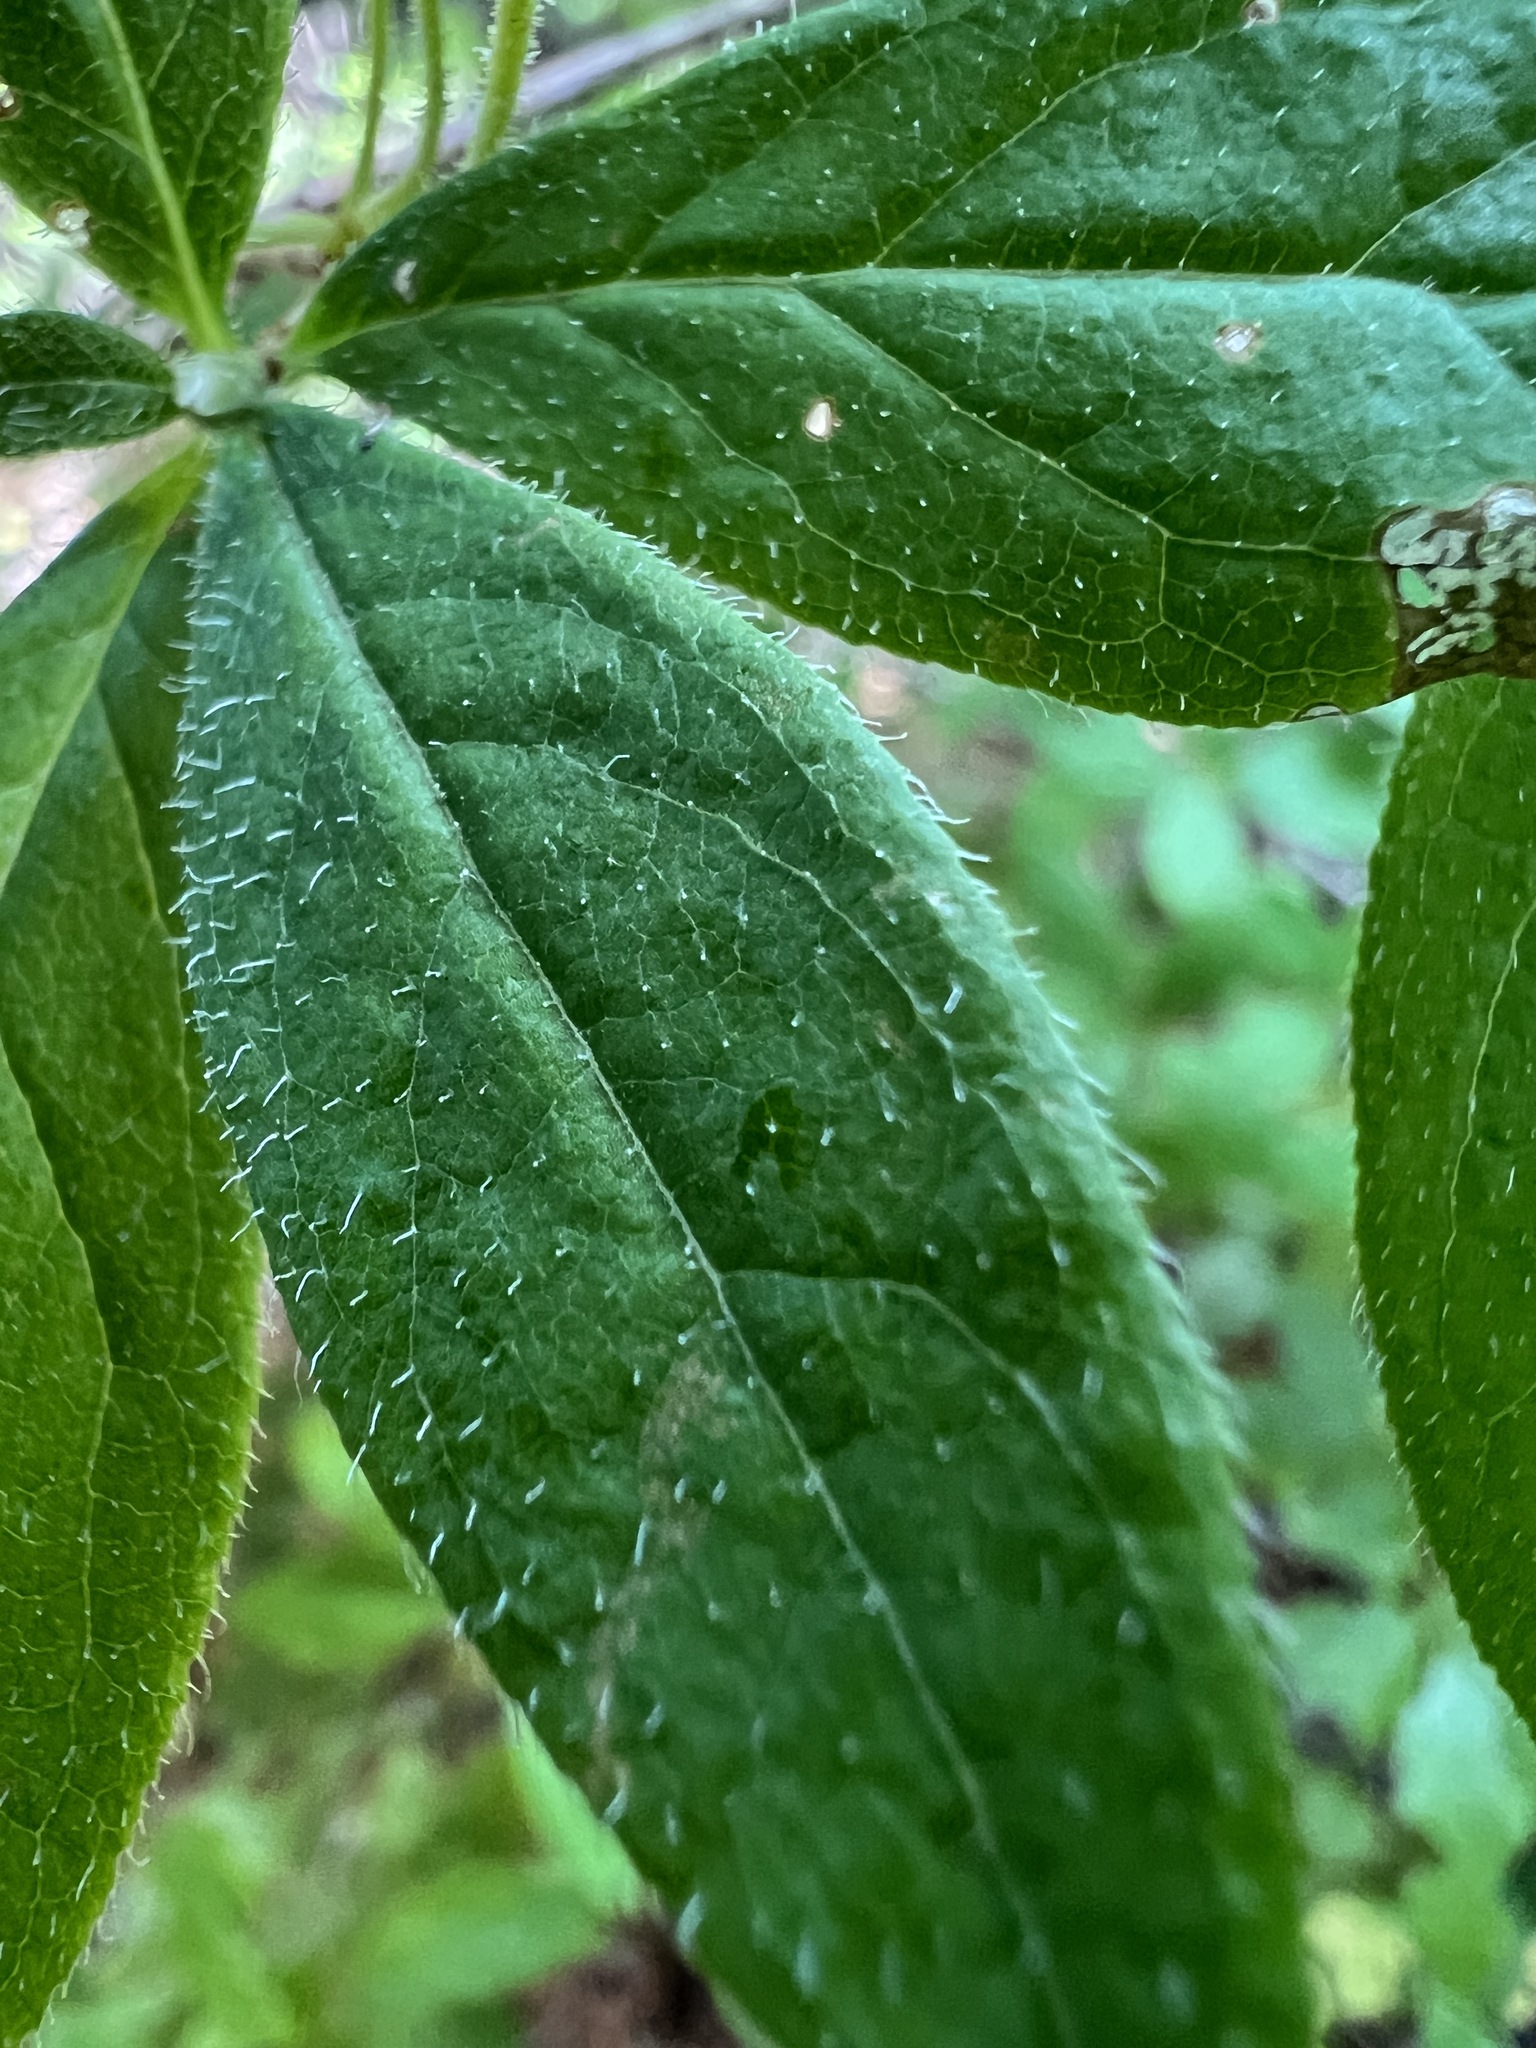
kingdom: Plantae
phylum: Tracheophyta
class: Magnoliopsida
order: Ericales
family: Ericaceae
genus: Rhododendron
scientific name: Rhododendron menziesii
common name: Pacific menziesia
